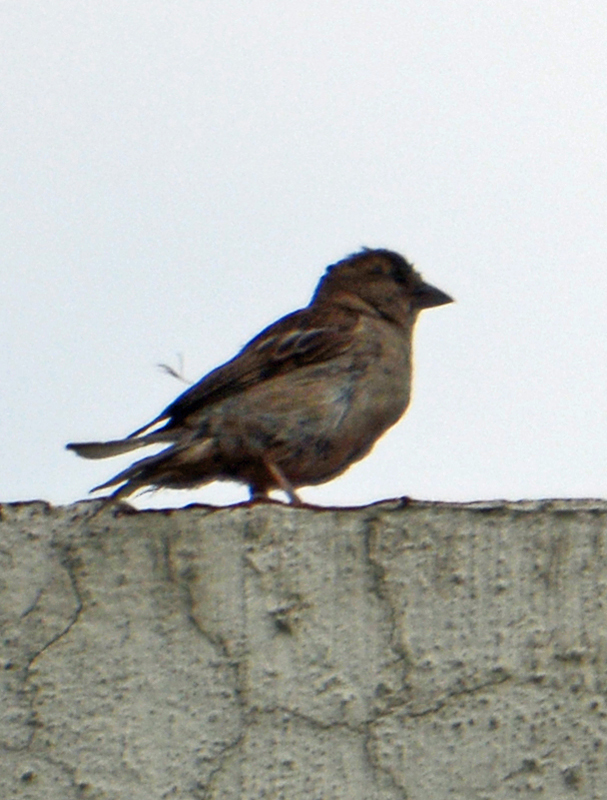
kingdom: Animalia
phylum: Chordata
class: Aves
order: Passeriformes
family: Passeridae
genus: Passer
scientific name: Passer domesticus
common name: House sparrow
